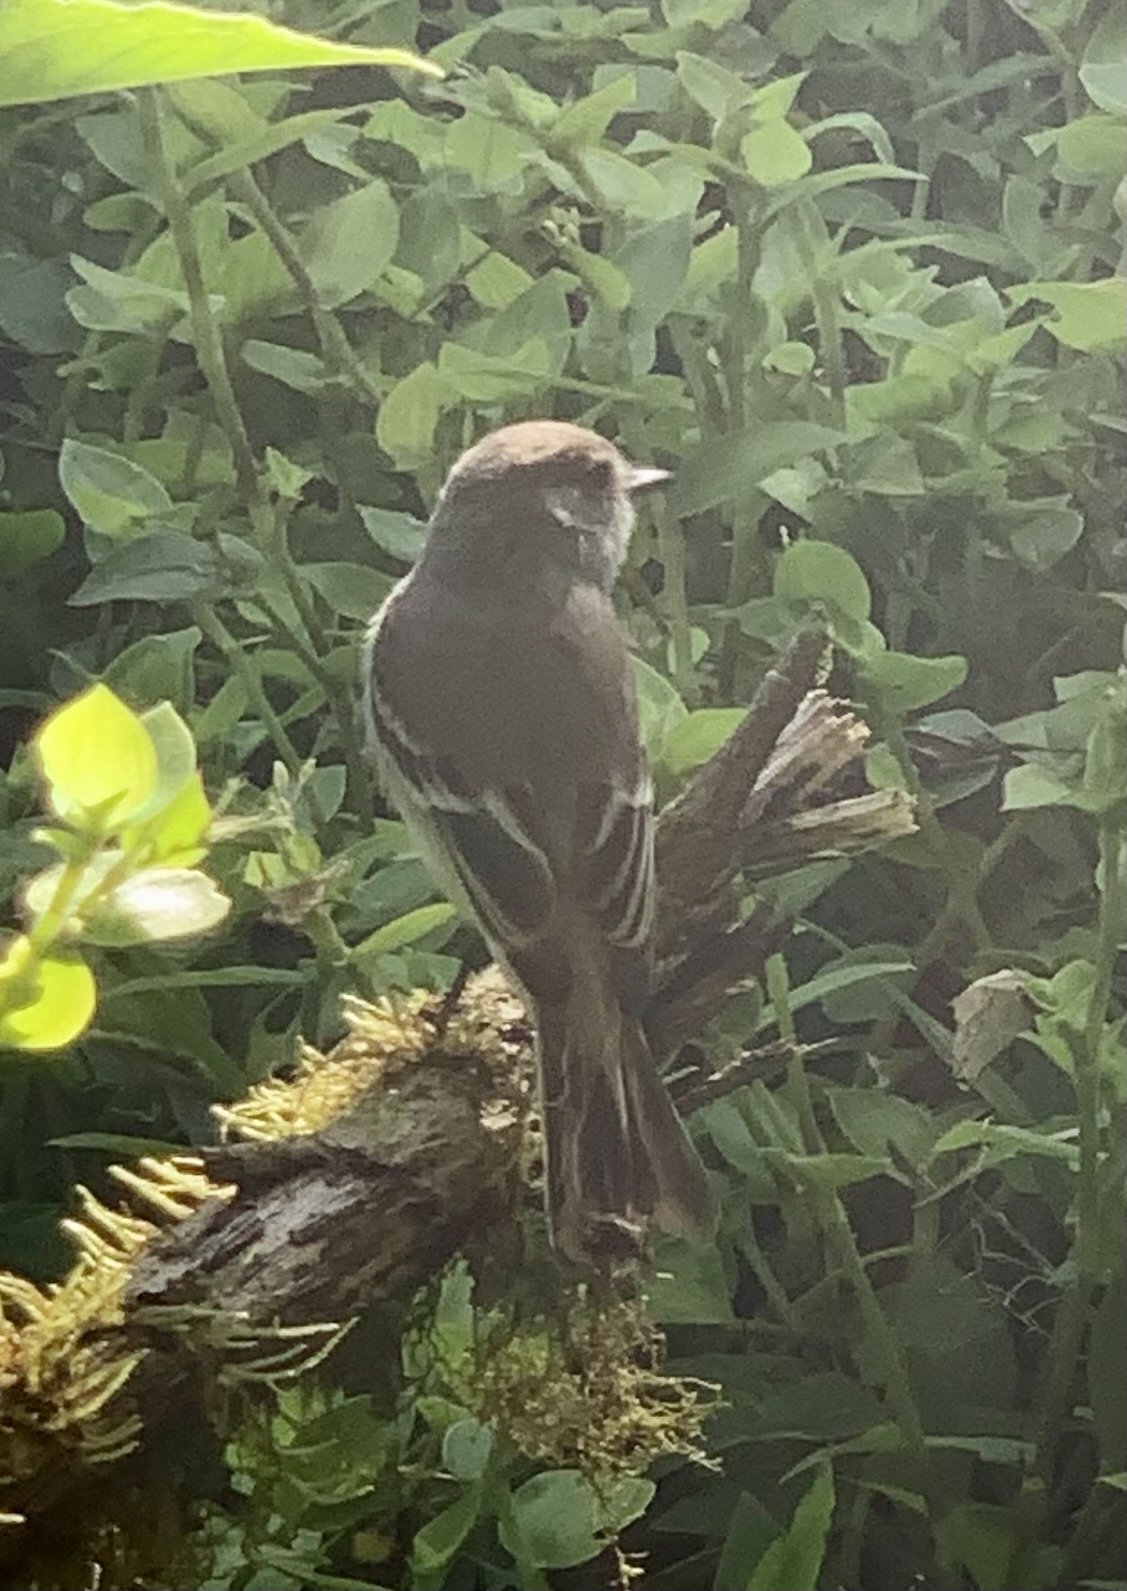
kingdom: Animalia
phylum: Chordata
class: Aves
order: Passeriformes
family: Tyrannidae
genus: Myiarchus
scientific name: Myiarchus magnirostris
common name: Galapagos flycatcher
